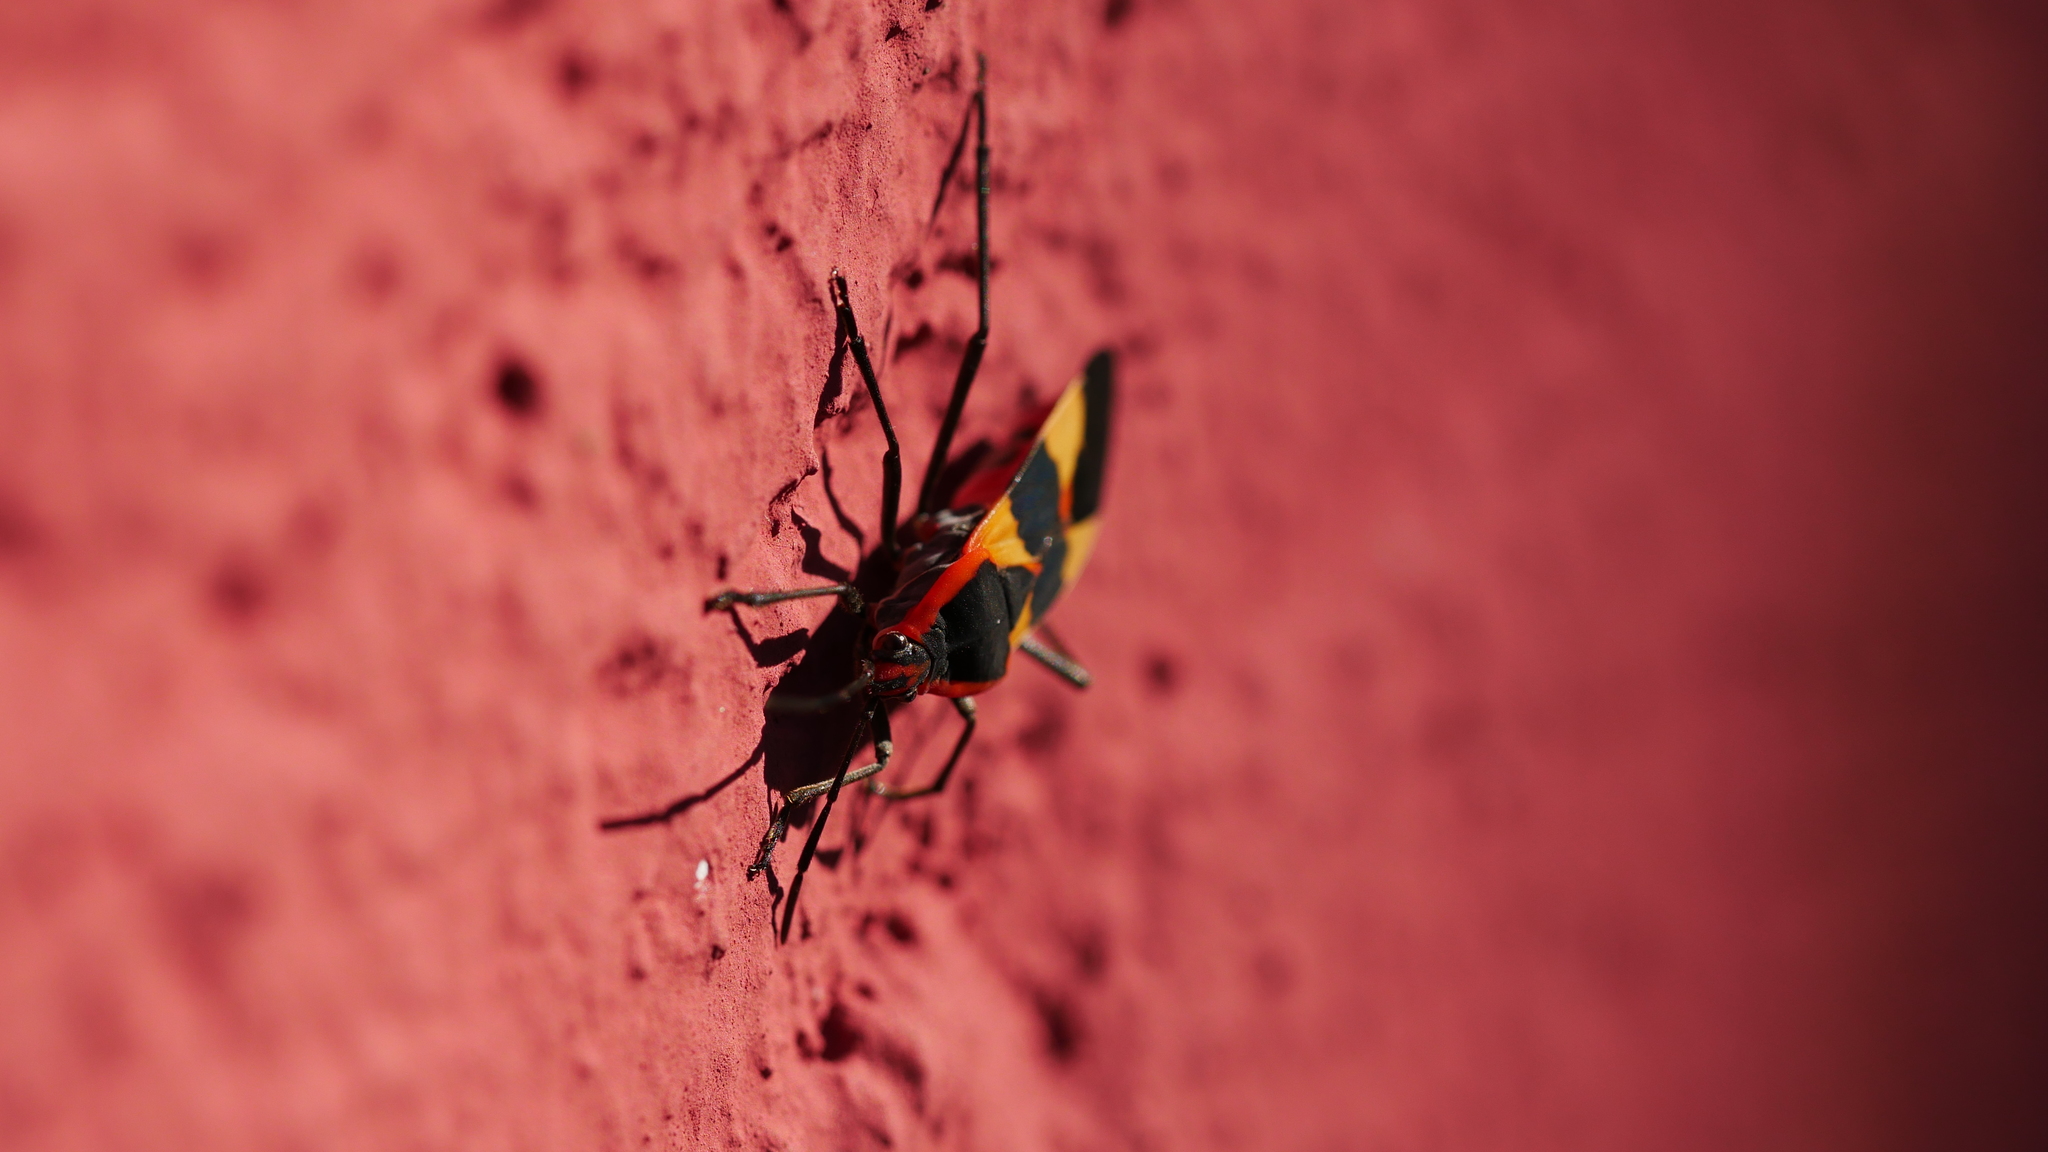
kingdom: Animalia
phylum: Arthropoda
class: Insecta
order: Hemiptera
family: Lygaeidae
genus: Oncopeltus
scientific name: Oncopeltus fasciatus
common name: Large milkweed bug
